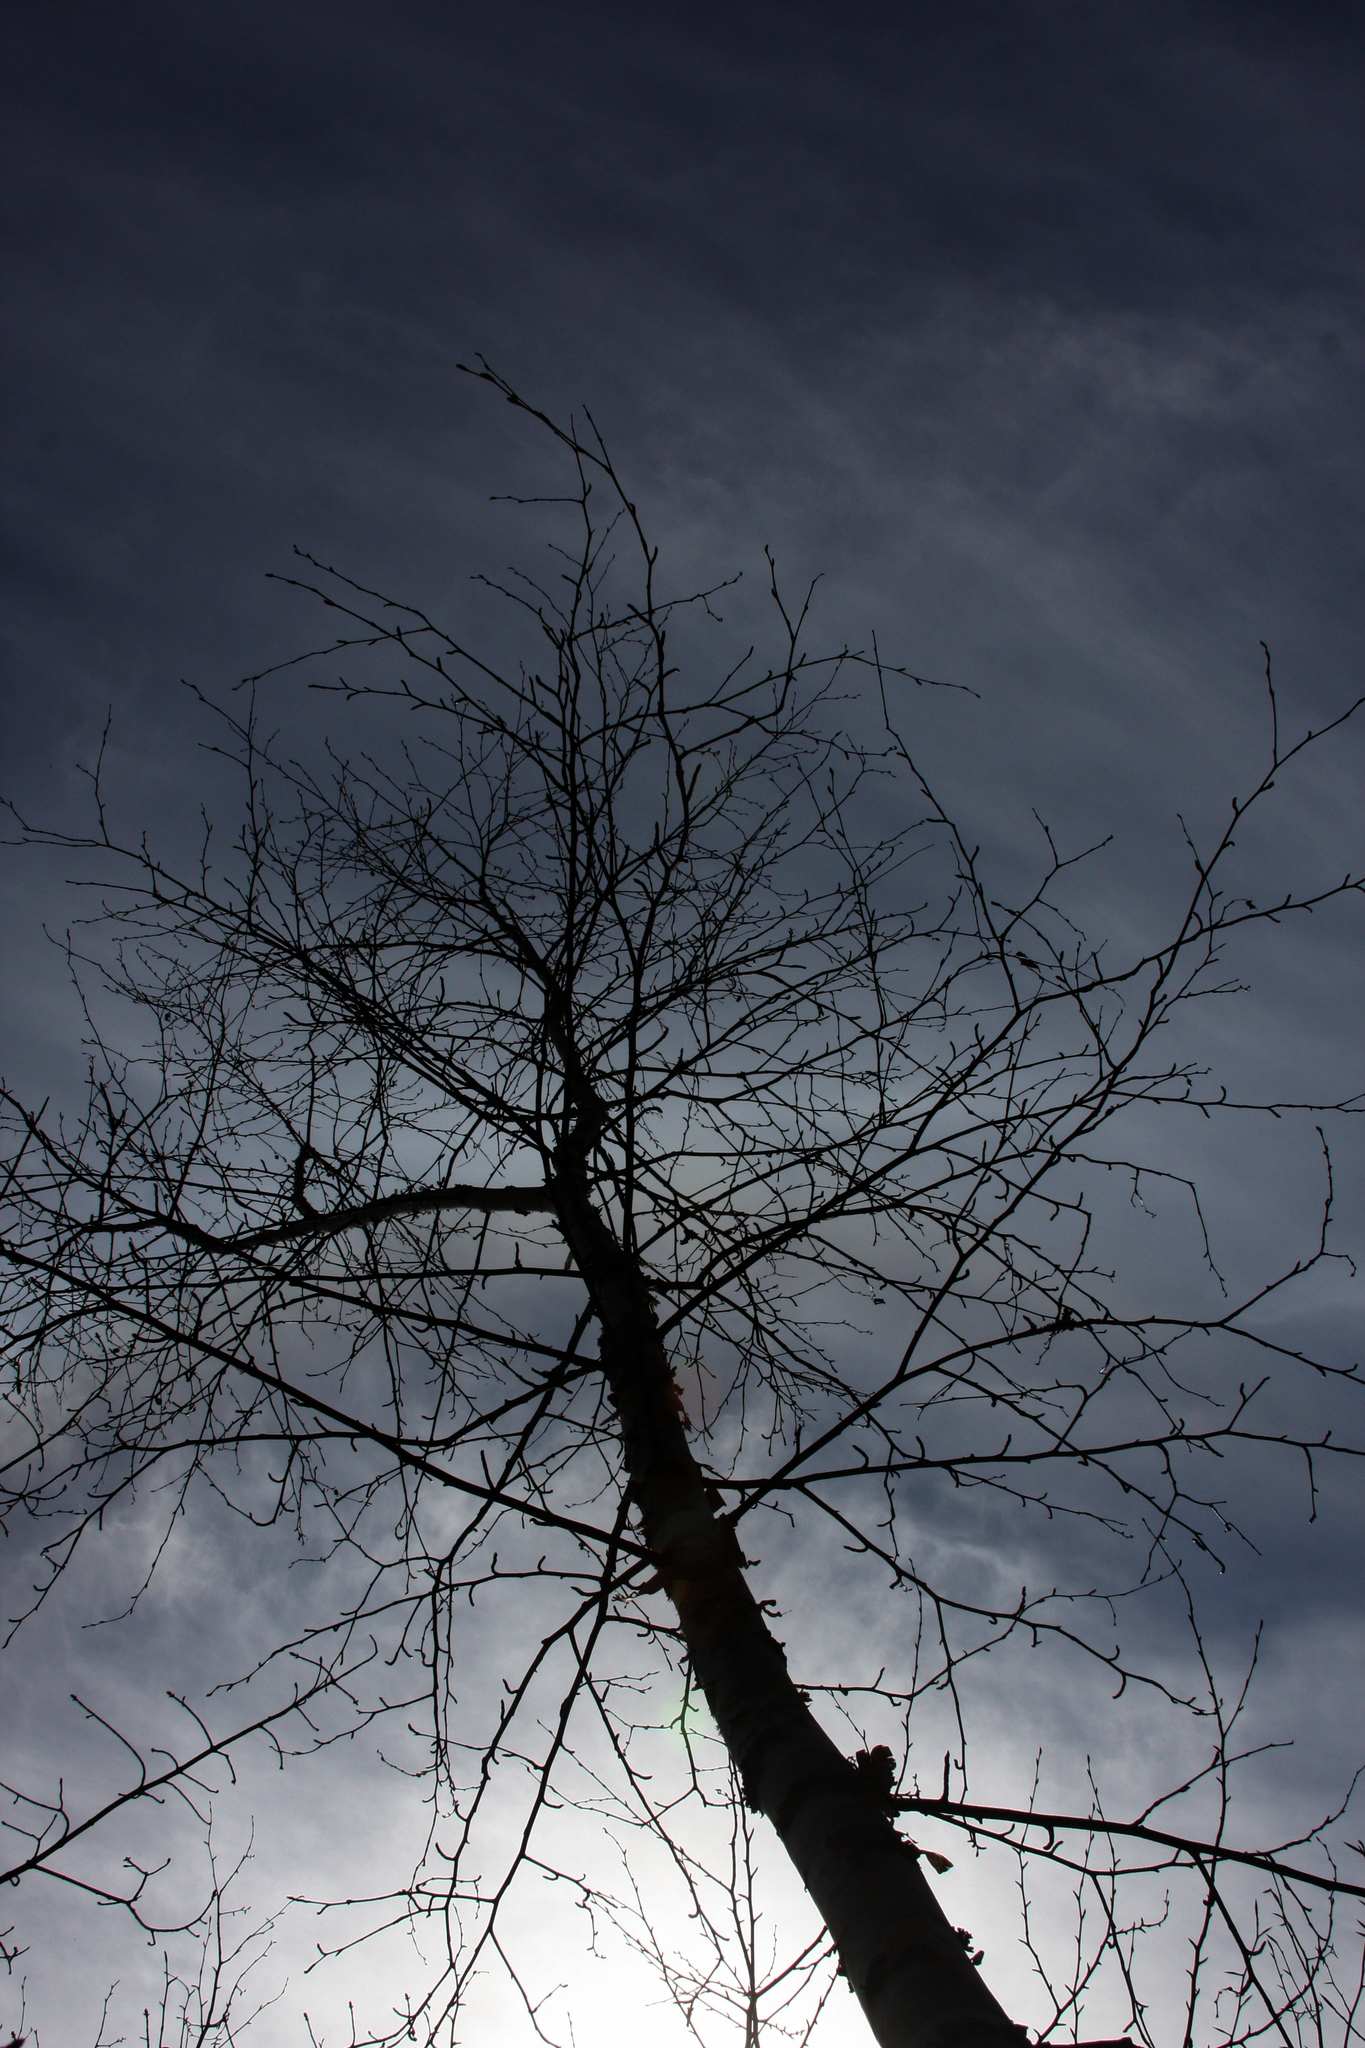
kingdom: Plantae
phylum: Tracheophyta
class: Magnoliopsida
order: Fagales
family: Betulaceae
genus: Betula
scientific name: Betula papyrifera
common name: Paper birch
